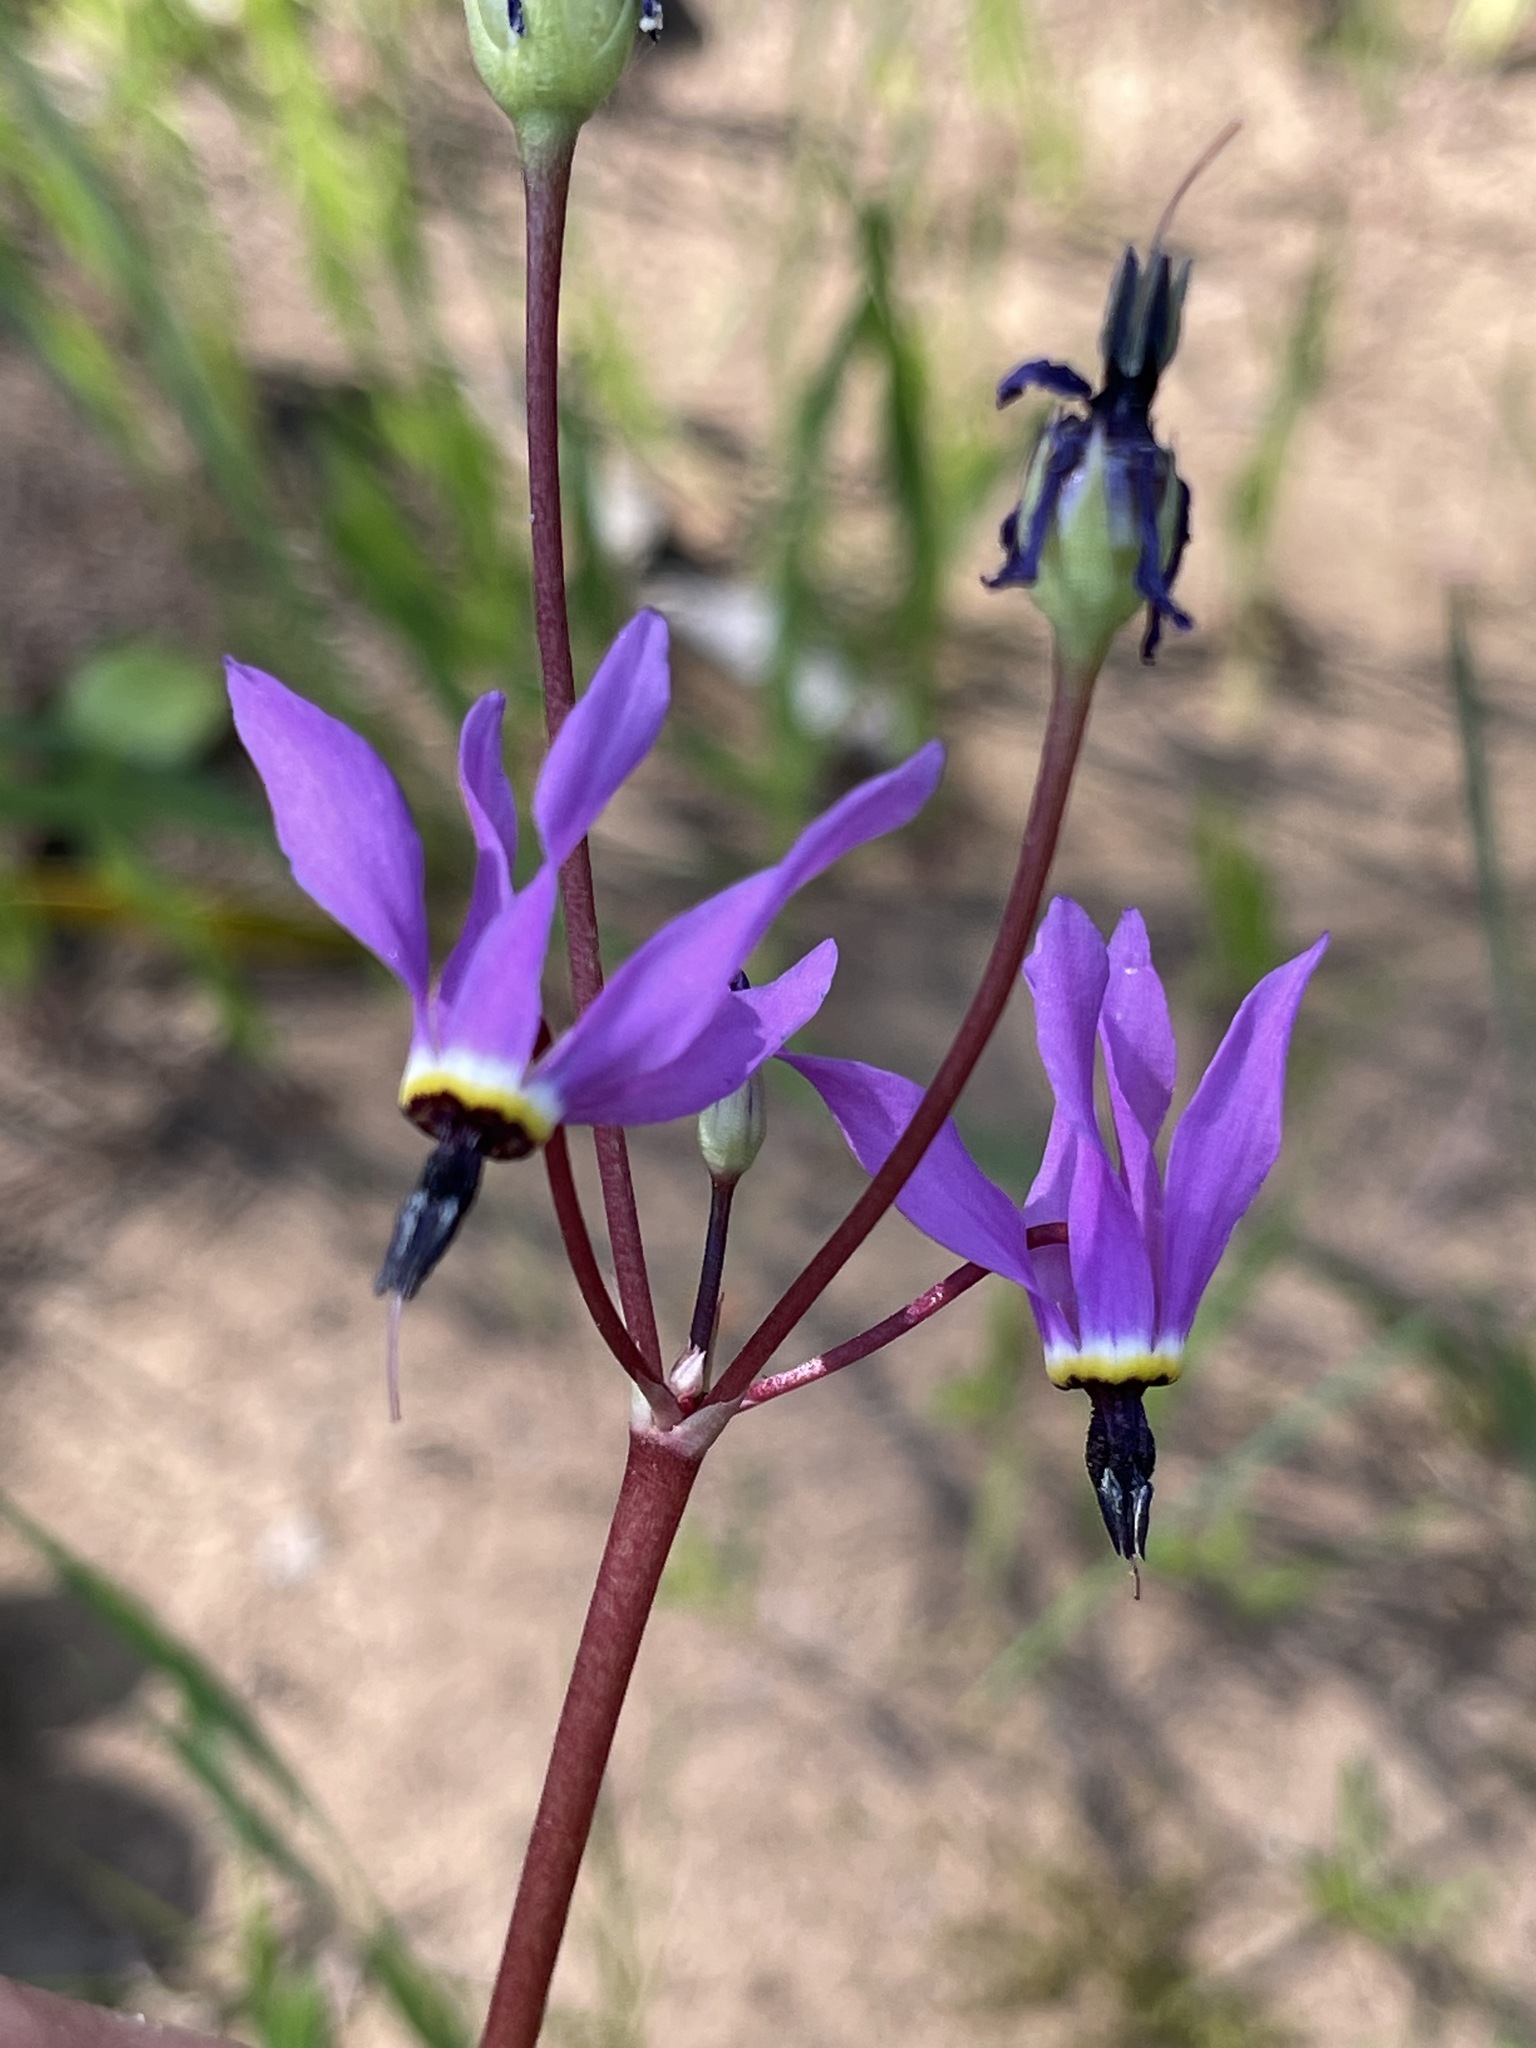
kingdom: Plantae
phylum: Tracheophyta
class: Magnoliopsida
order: Ericales
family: Primulaceae
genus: Dodecatheon
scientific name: Dodecatheon hendersonii
